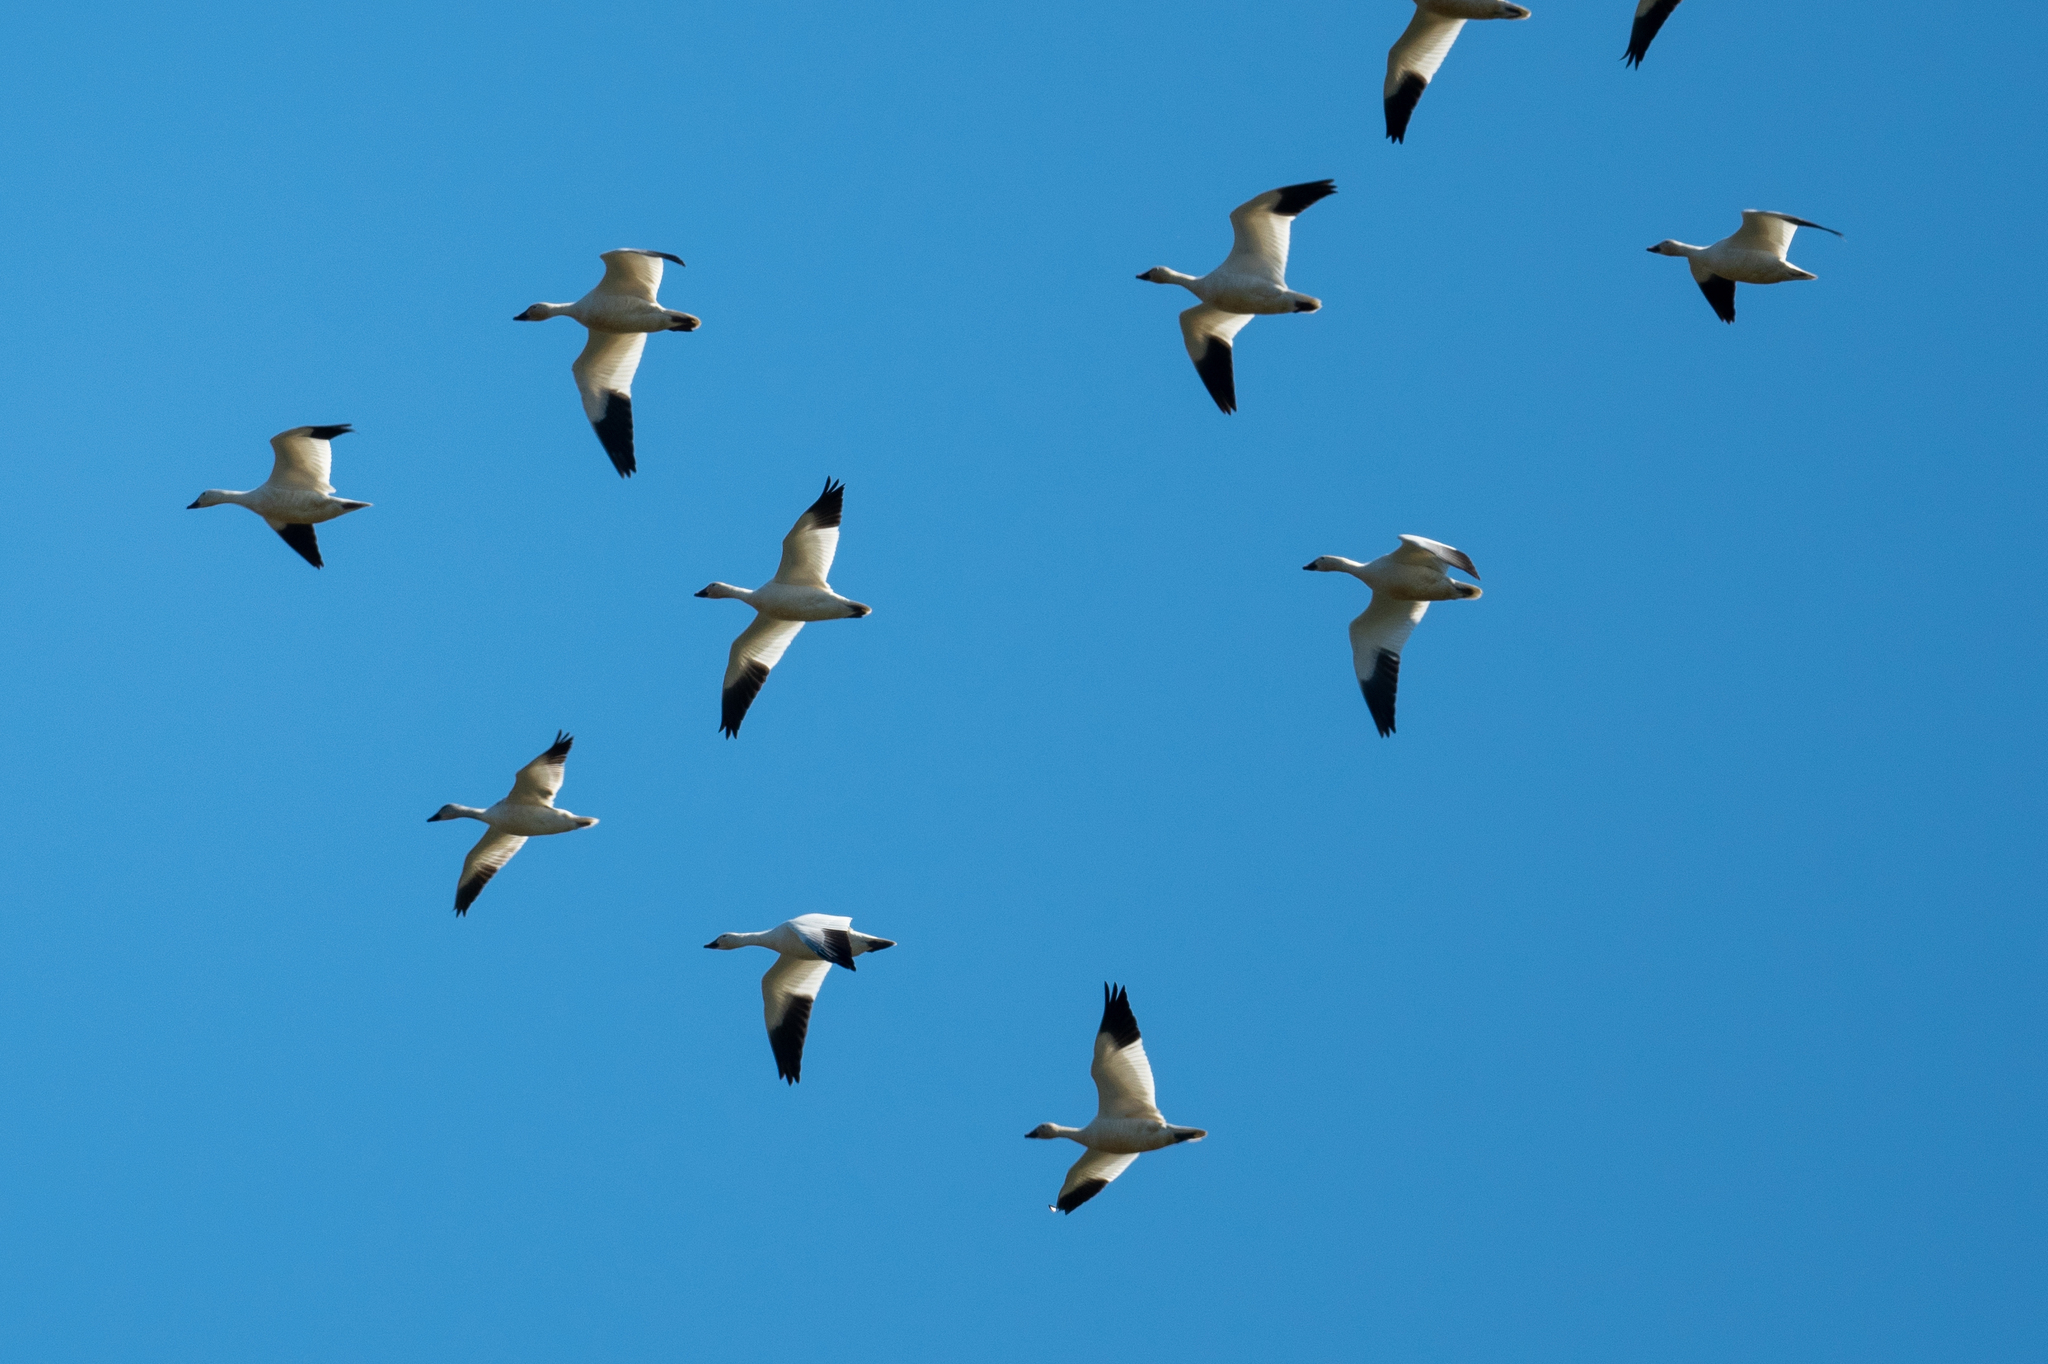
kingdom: Animalia
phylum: Chordata
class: Aves
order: Anseriformes
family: Anatidae
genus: Anser
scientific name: Anser caerulescens
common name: Snow goose
